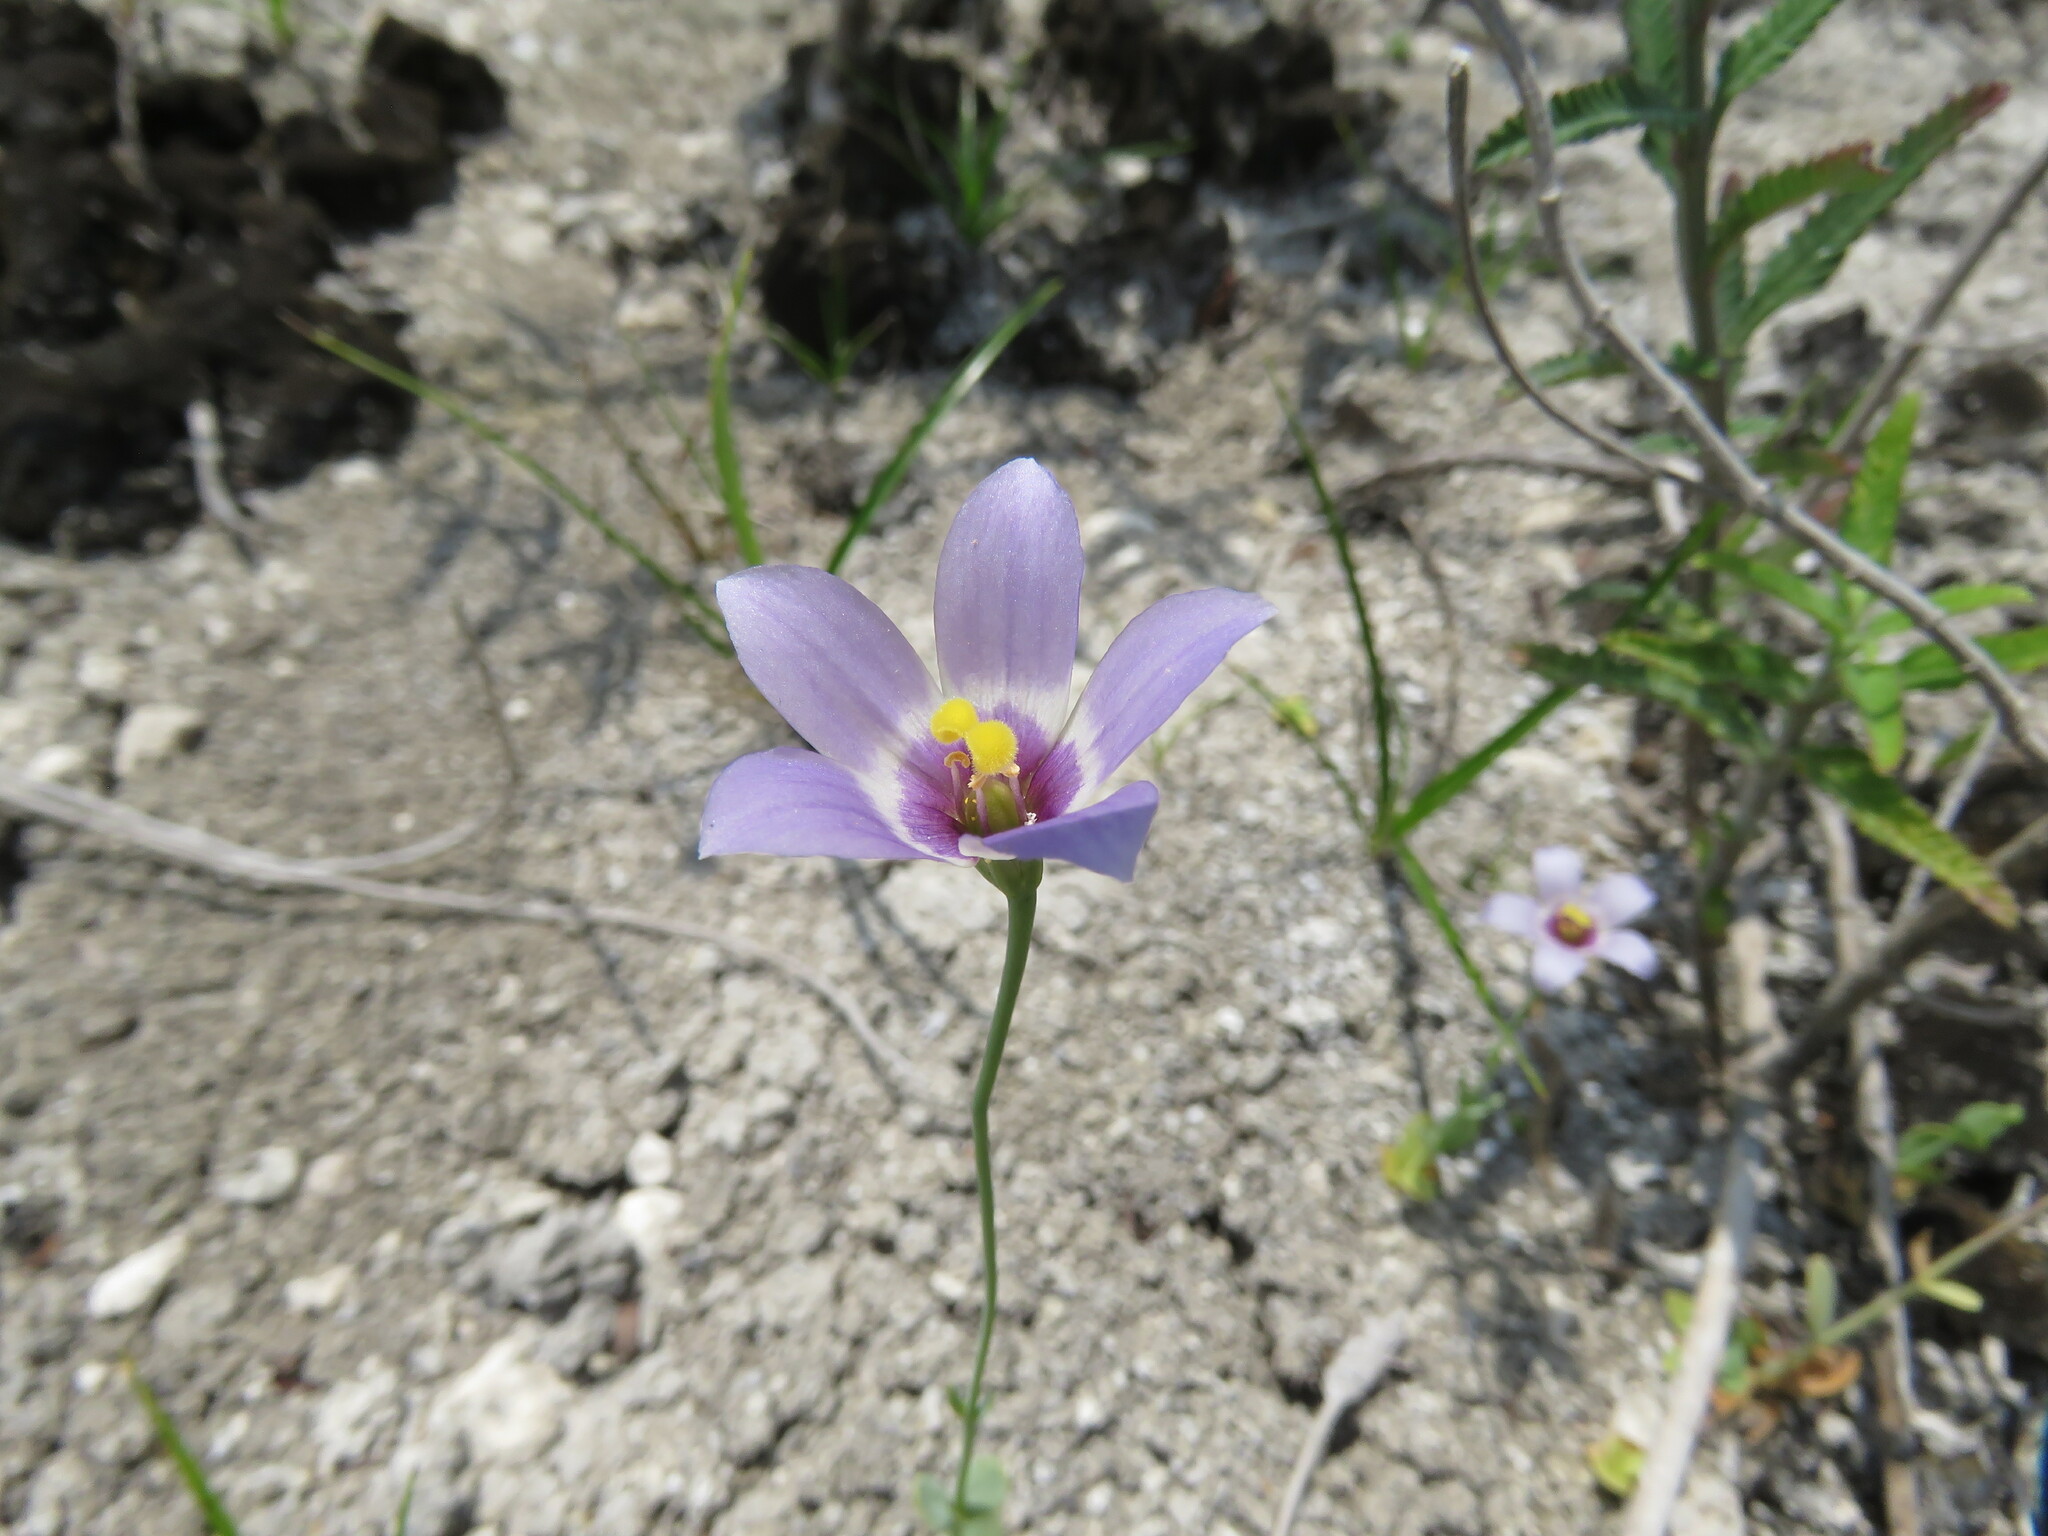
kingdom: Plantae
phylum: Tracheophyta
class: Magnoliopsida
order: Gentianales
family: Gentianaceae
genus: Eustoma
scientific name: Eustoma exaltatum
